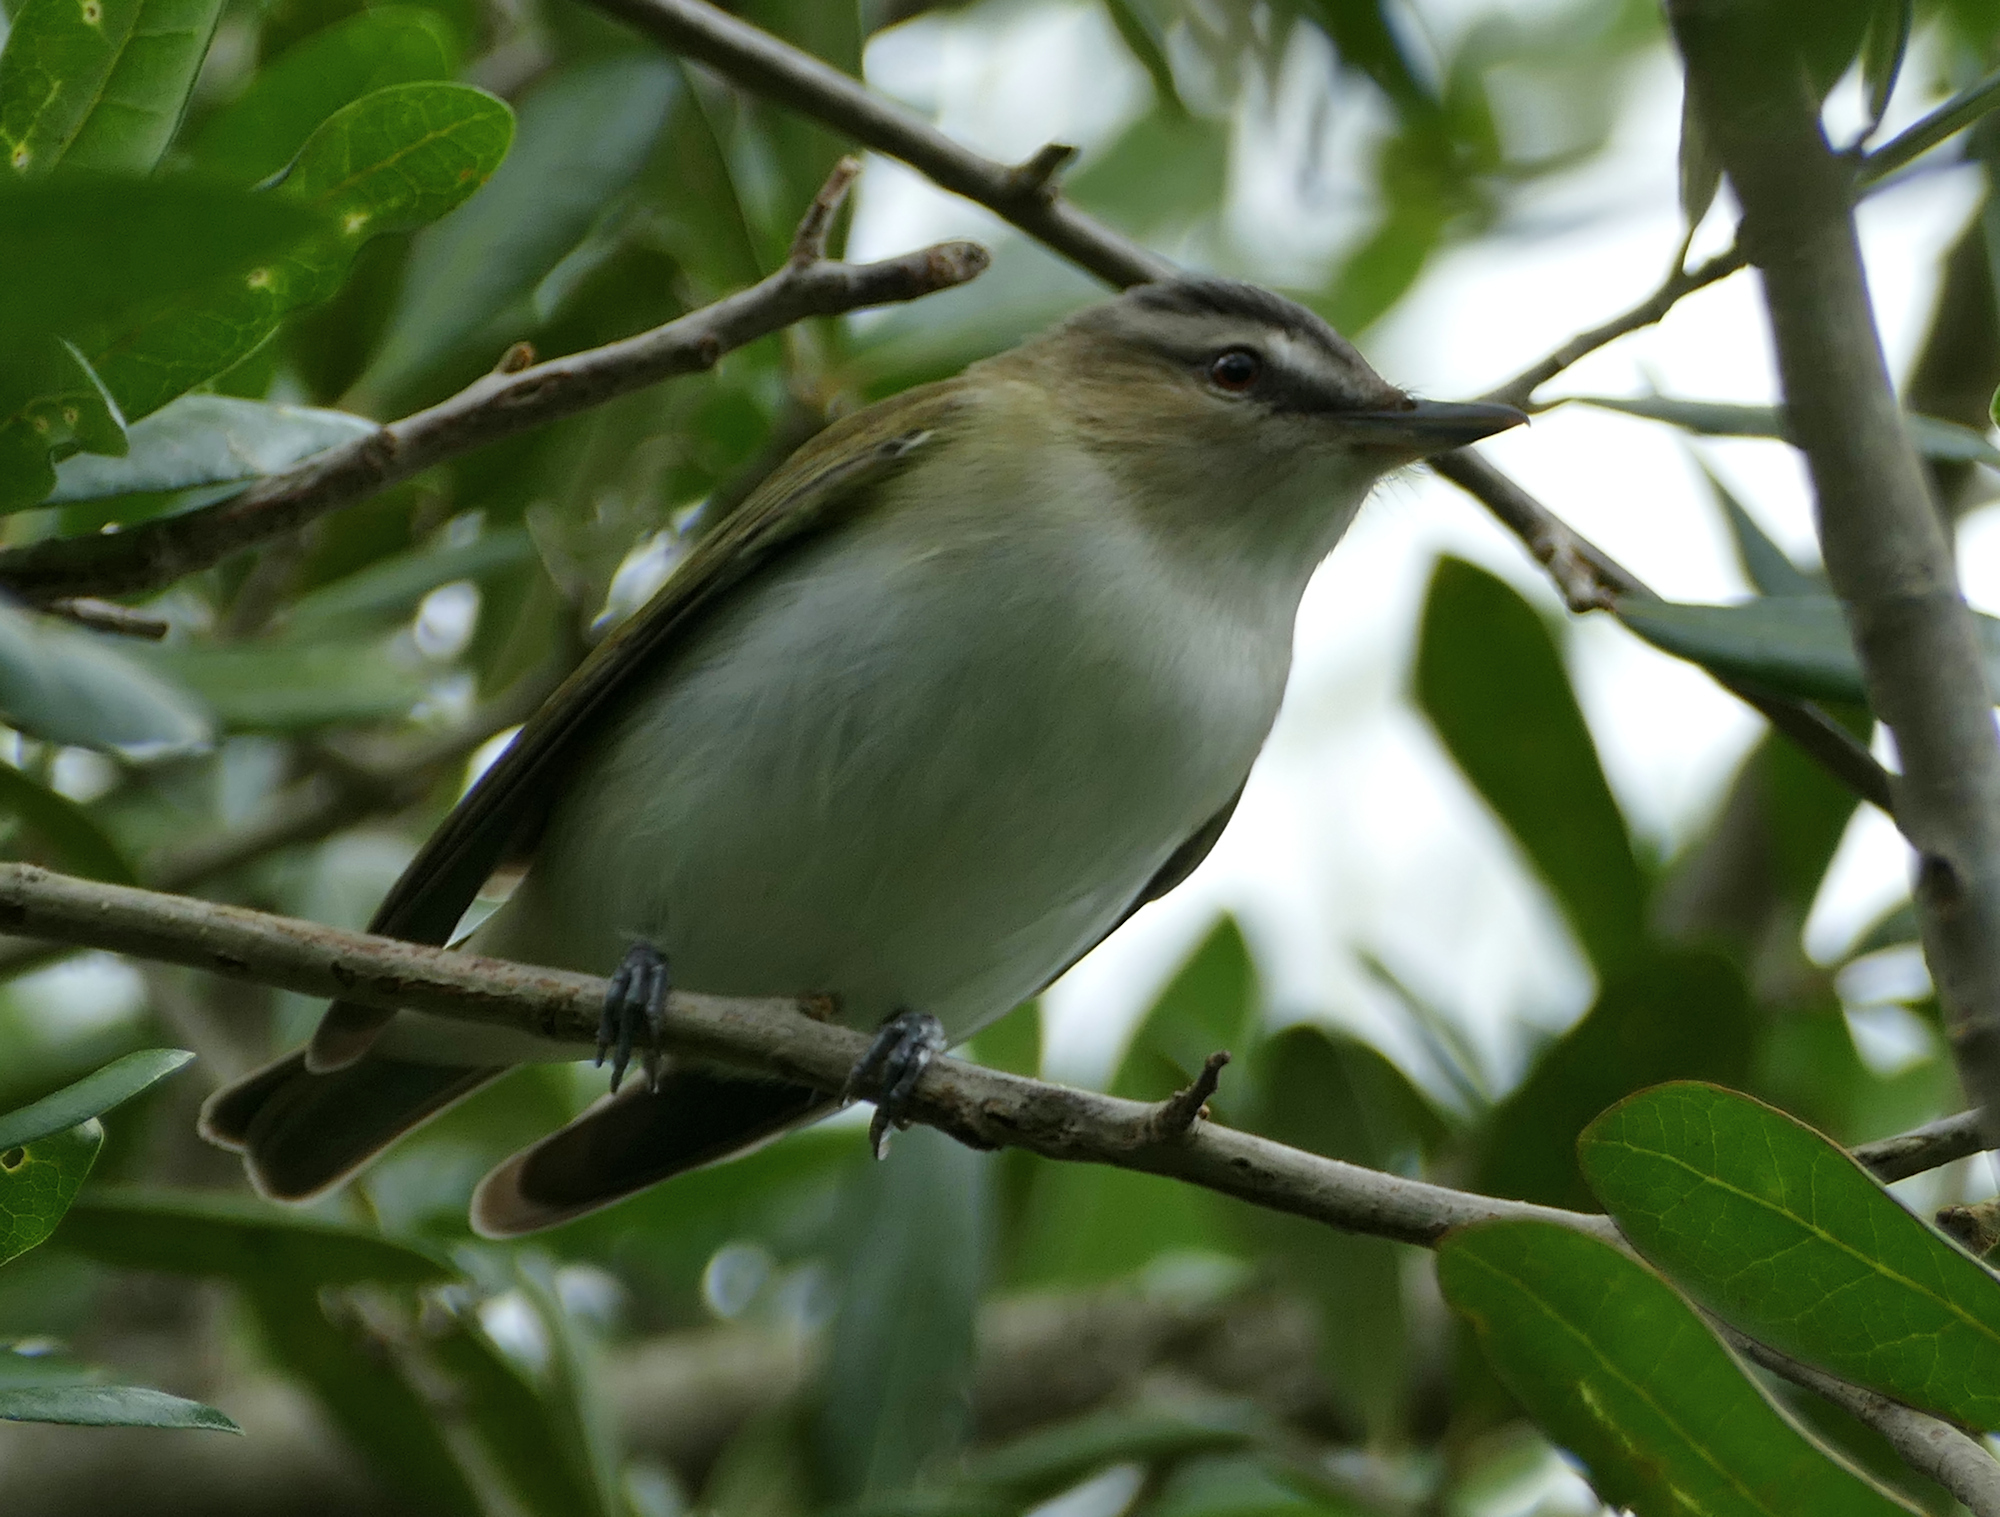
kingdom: Animalia
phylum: Chordata
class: Aves
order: Passeriformes
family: Vireonidae
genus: Vireo
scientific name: Vireo olivaceus
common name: Red-eyed vireo
